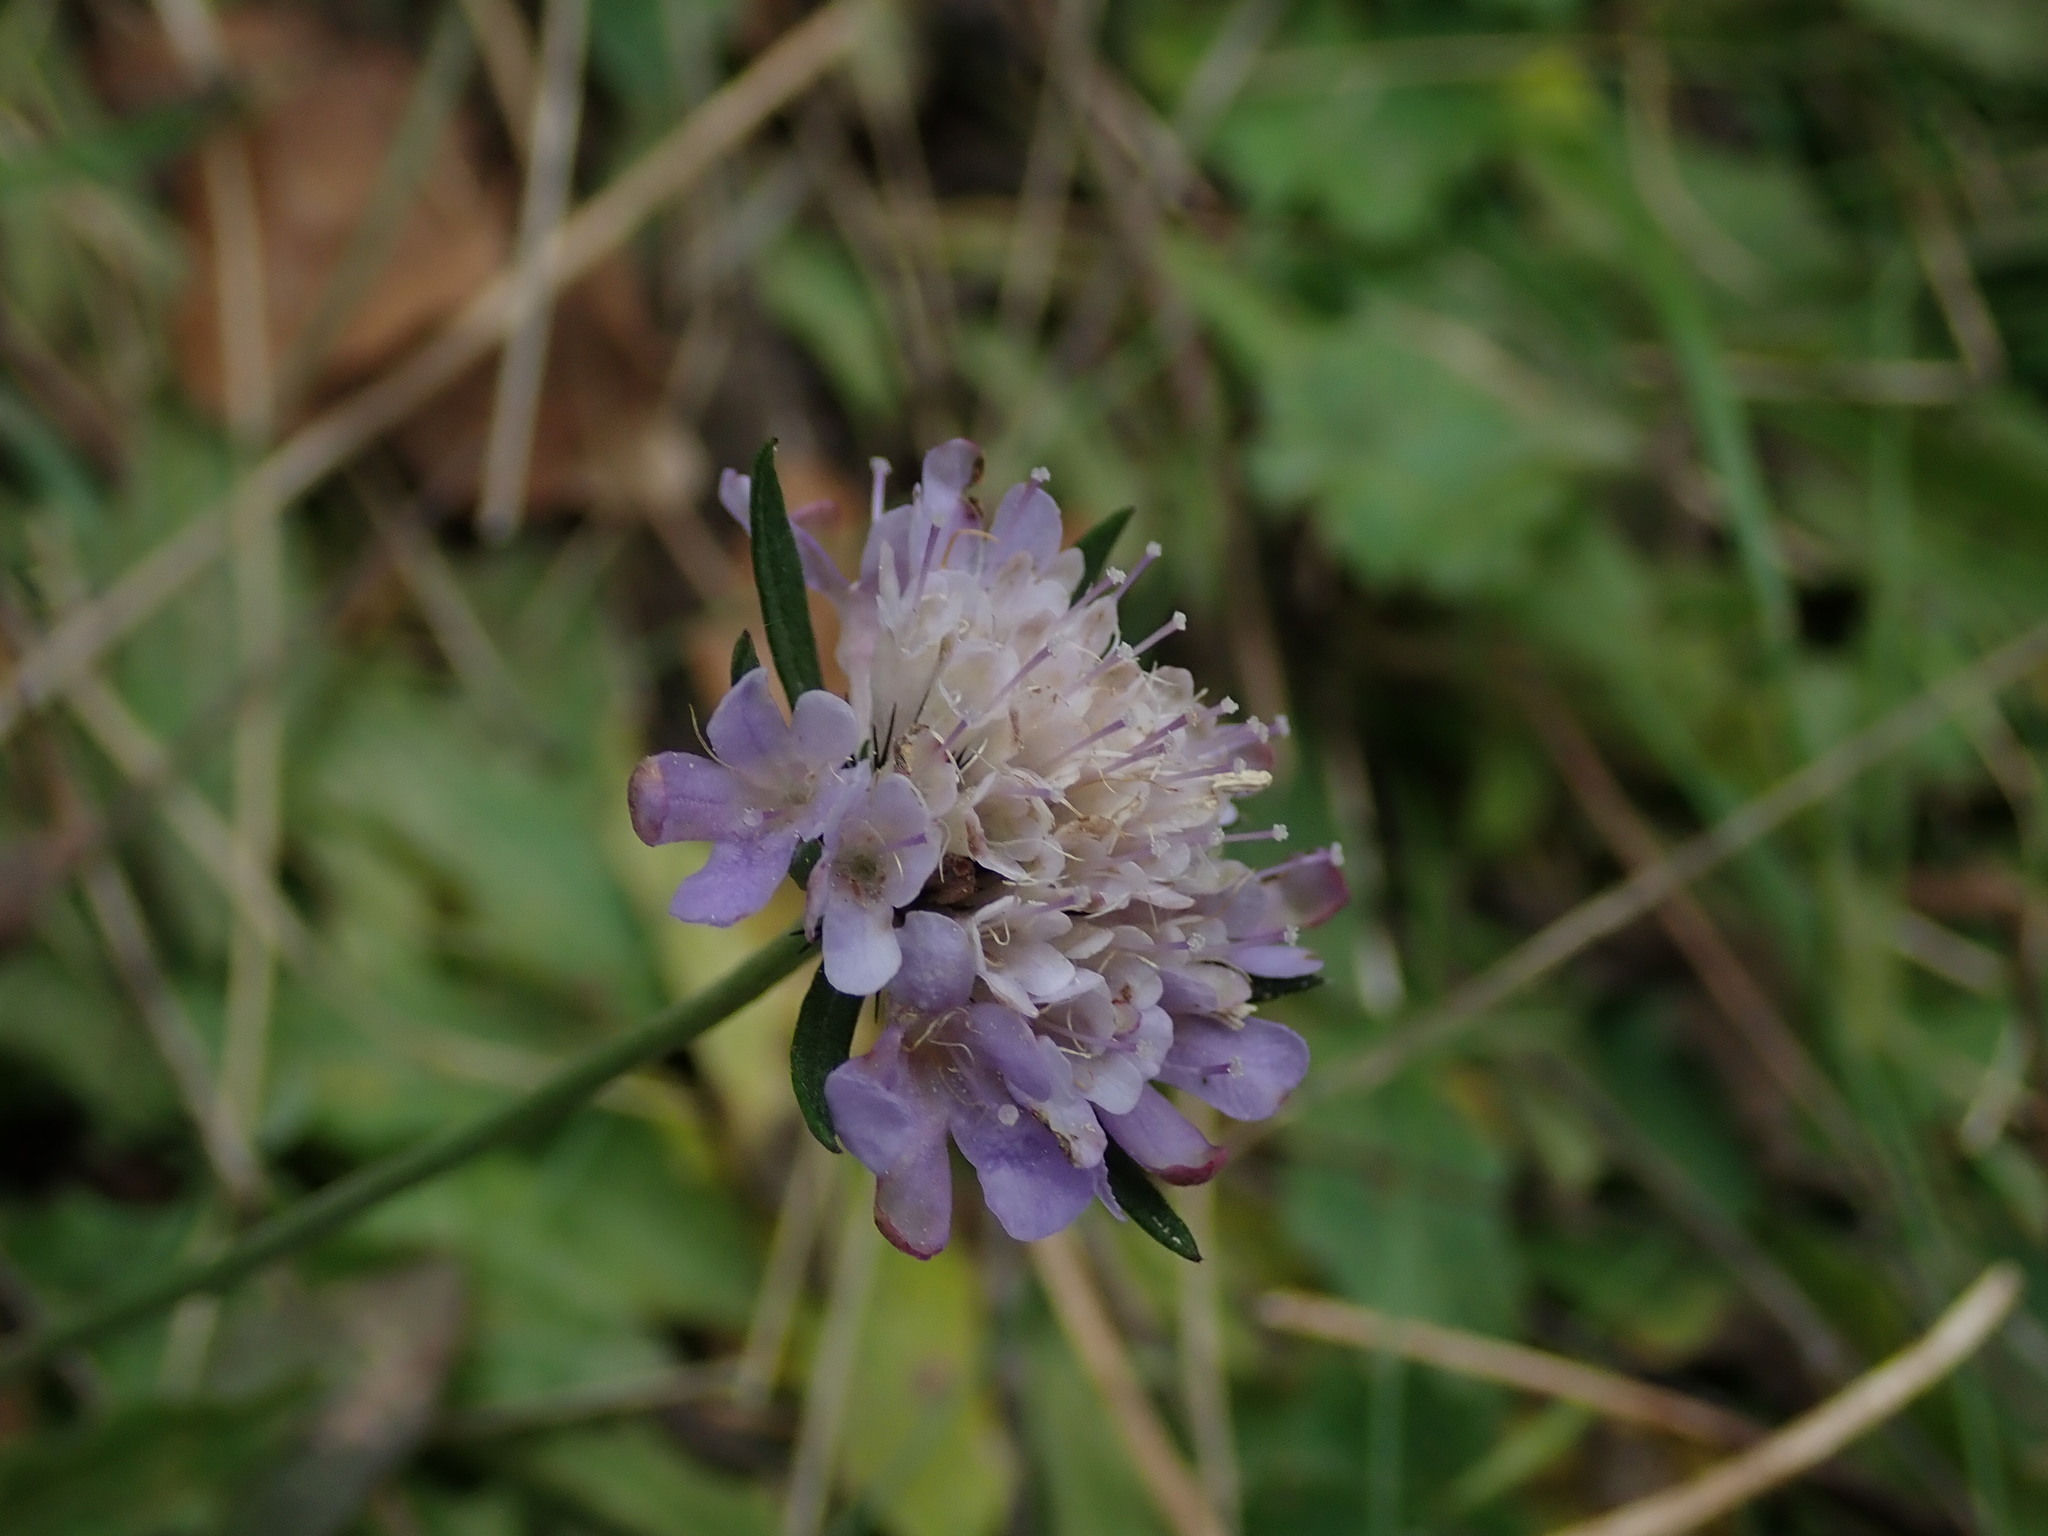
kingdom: Plantae
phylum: Tracheophyta
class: Magnoliopsida
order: Dipsacales
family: Caprifoliaceae
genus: Scabiosa
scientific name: Scabiosa columbaria
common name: Small scabious
